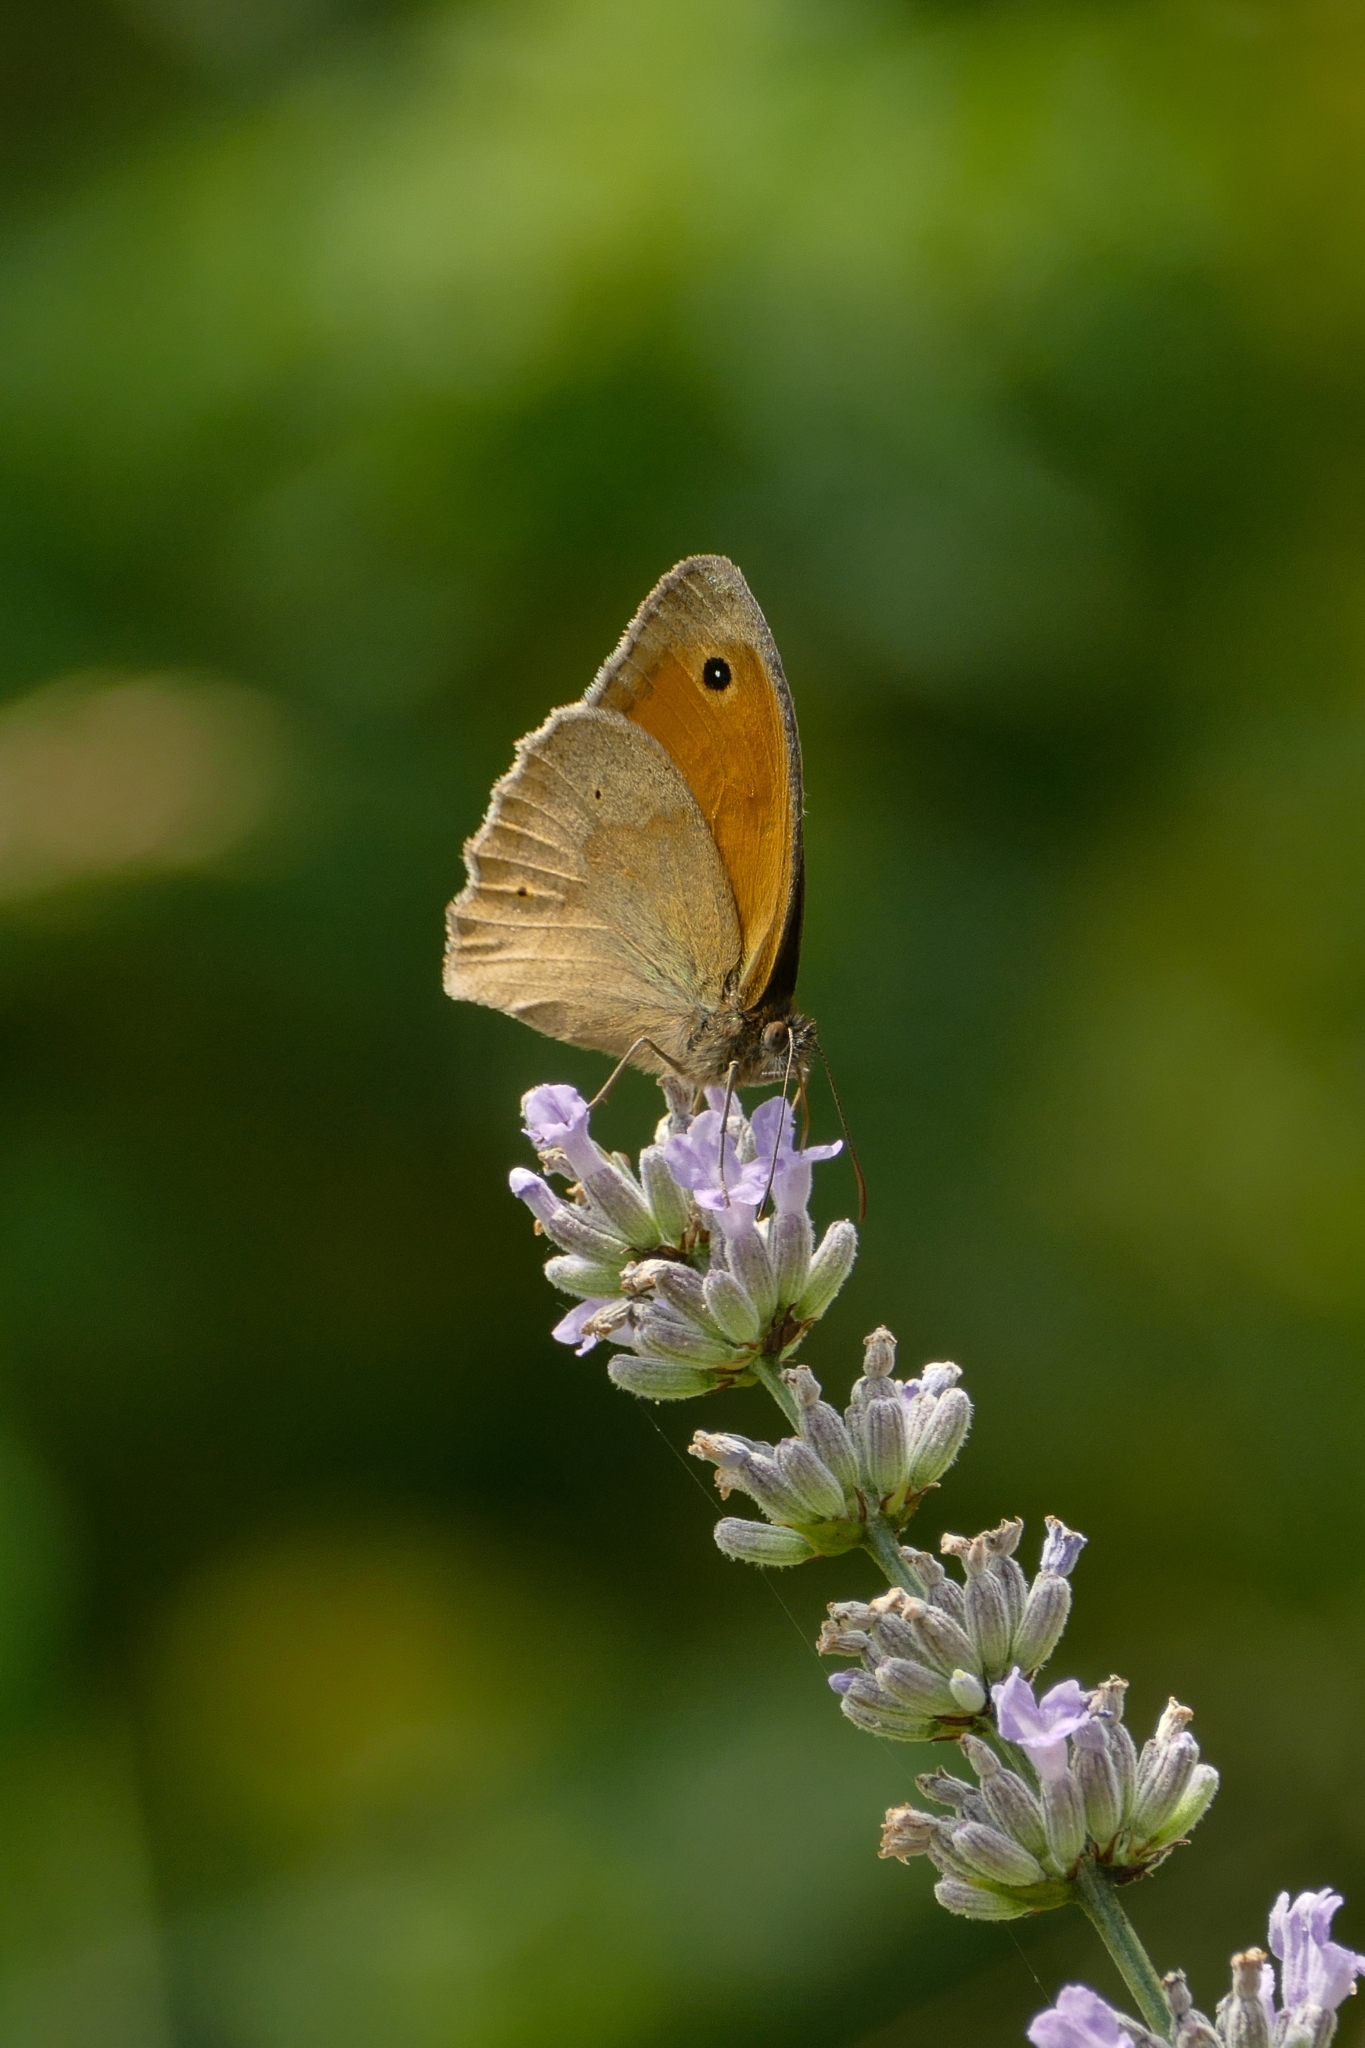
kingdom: Animalia
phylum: Arthropoda
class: Insecta
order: Lepidoptera
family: Nymphalidae
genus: Maniola
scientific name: Maniola jurtina
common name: Meadow brown
